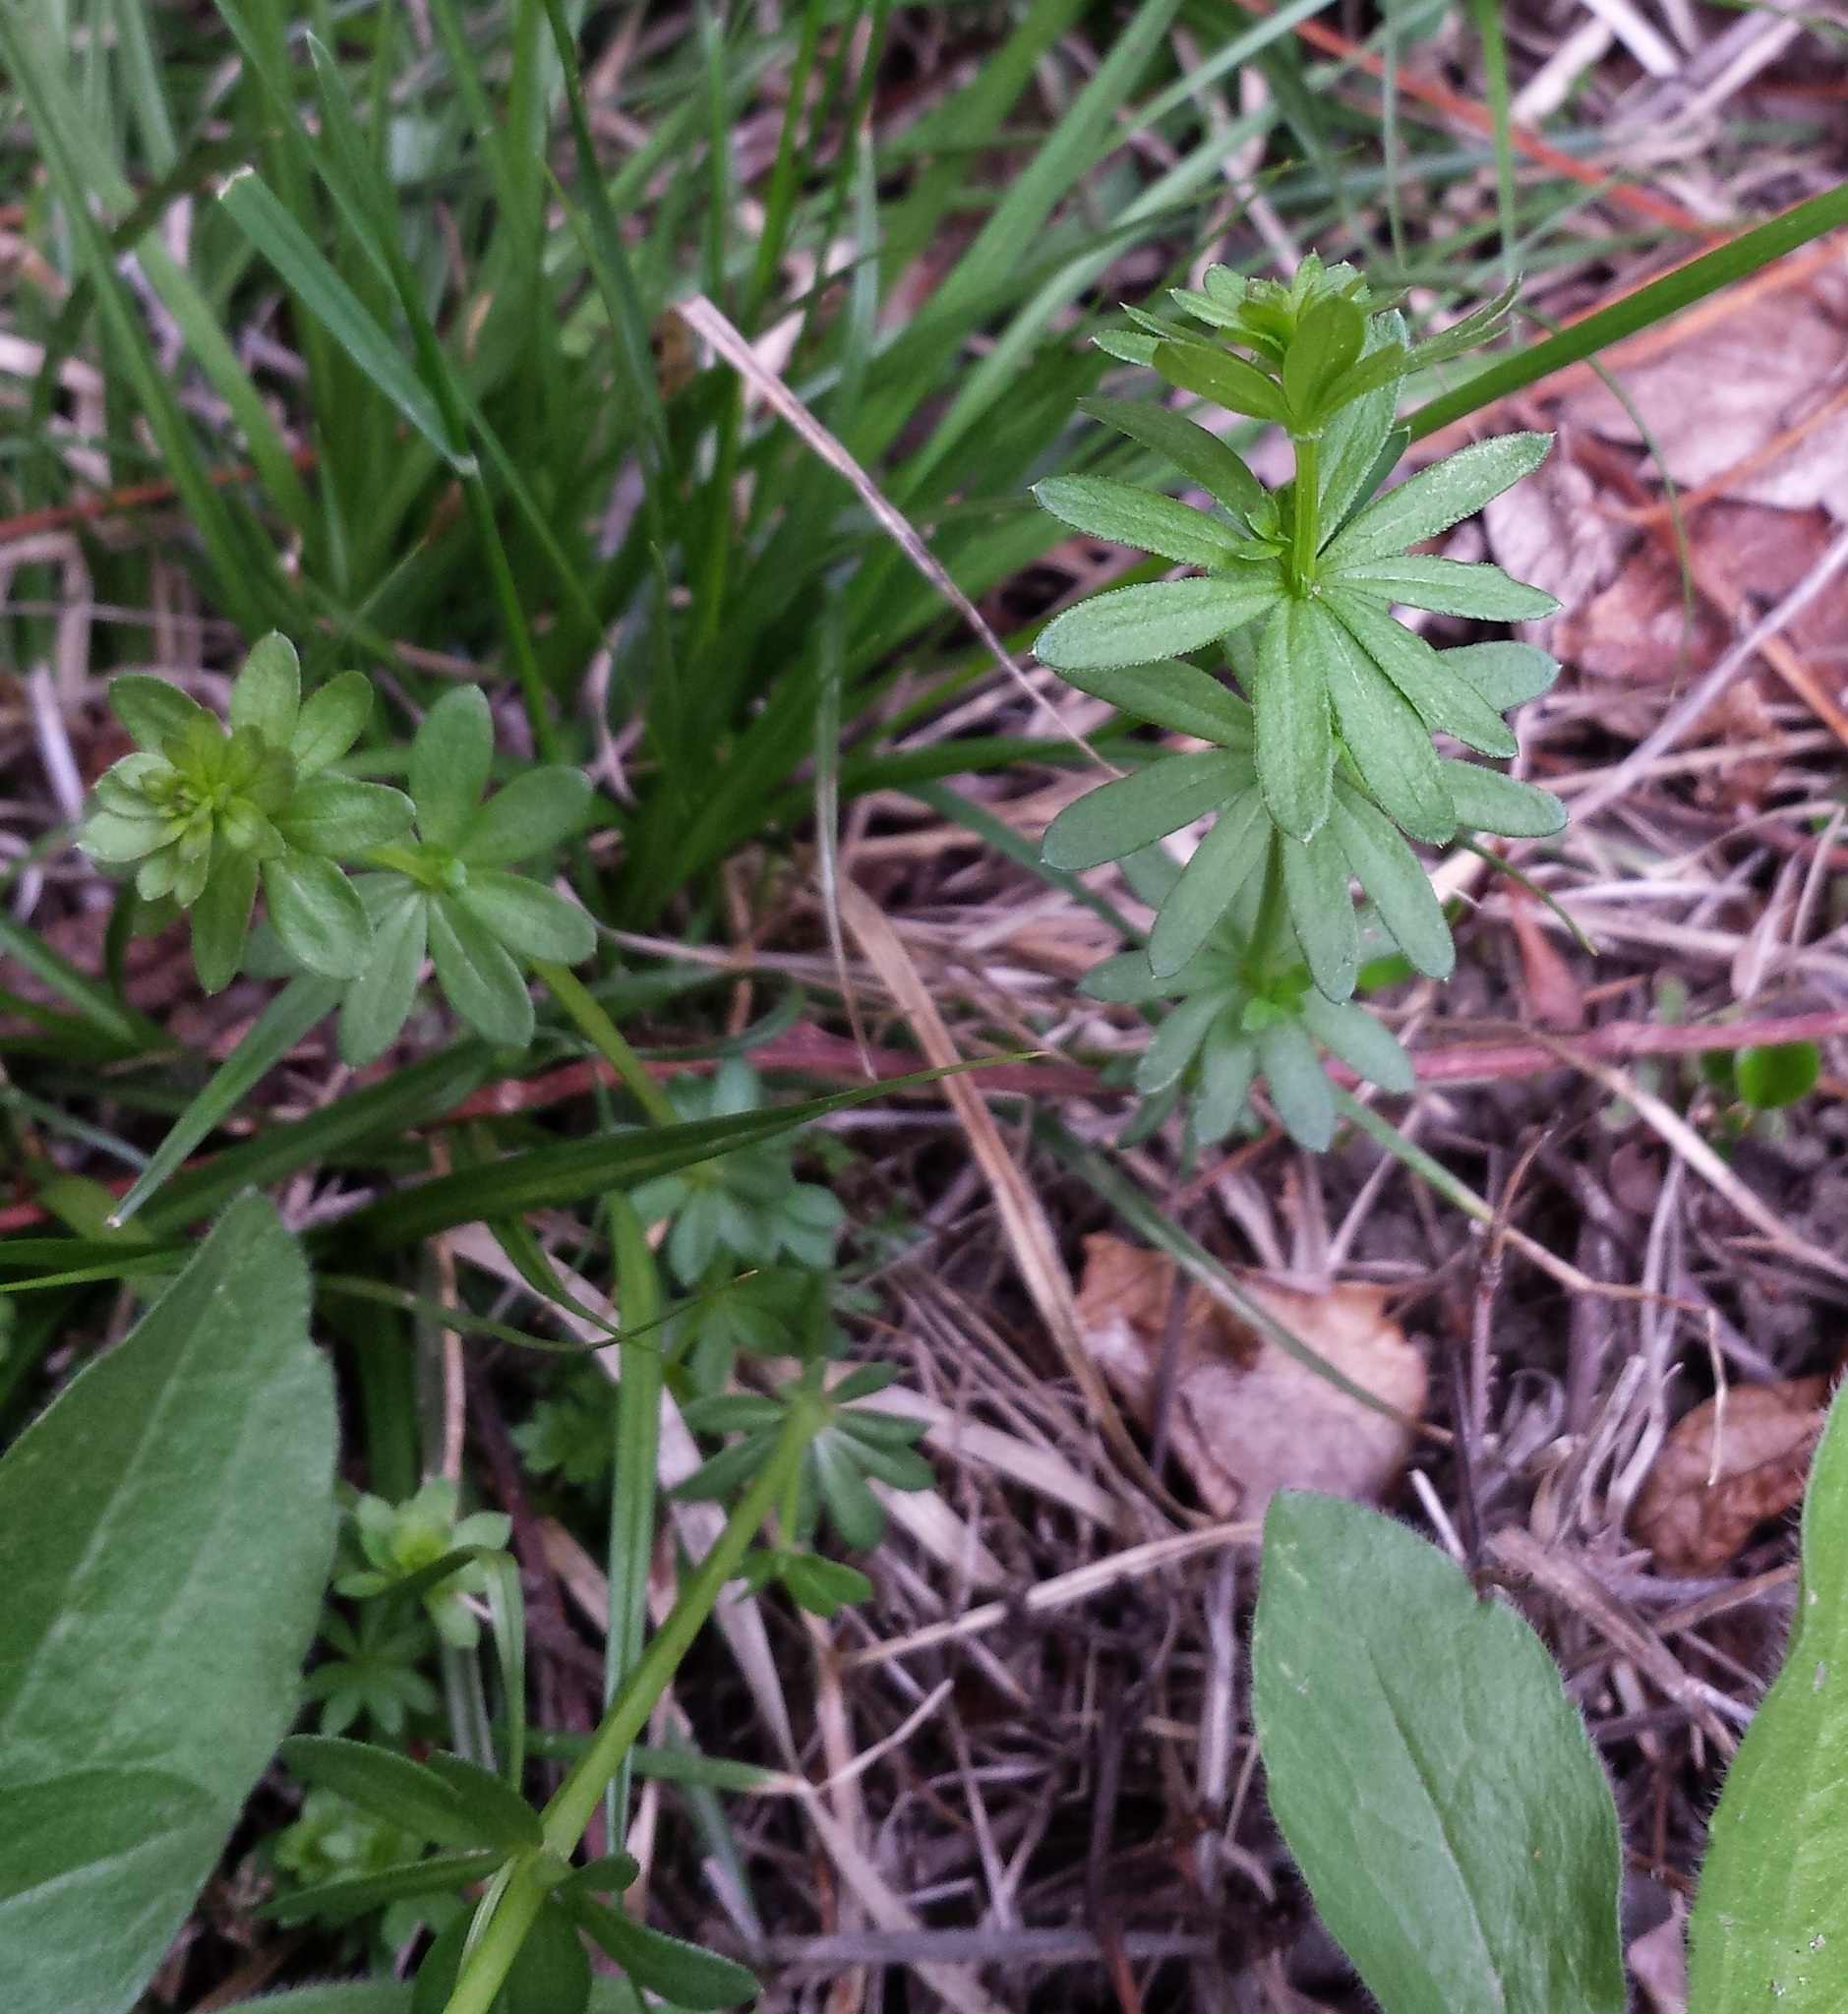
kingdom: Plantae
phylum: Tracheophyta
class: Magnoliopsida
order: Gentianales
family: Rubiaceae
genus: Galium
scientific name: Galium mollugo
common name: Hedge bedstraw
